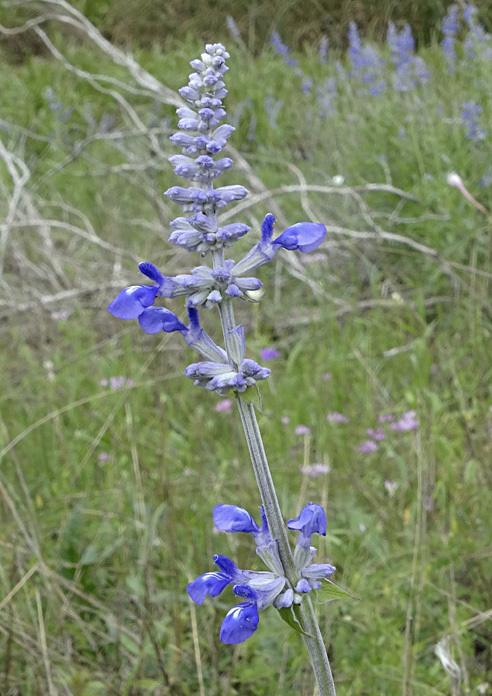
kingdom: Plantae
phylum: Tracheophyta
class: Magnoliopsida
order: Lamiales
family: Lamiaceae
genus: Salvia
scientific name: Salvia farinacea
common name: Mealy sage
